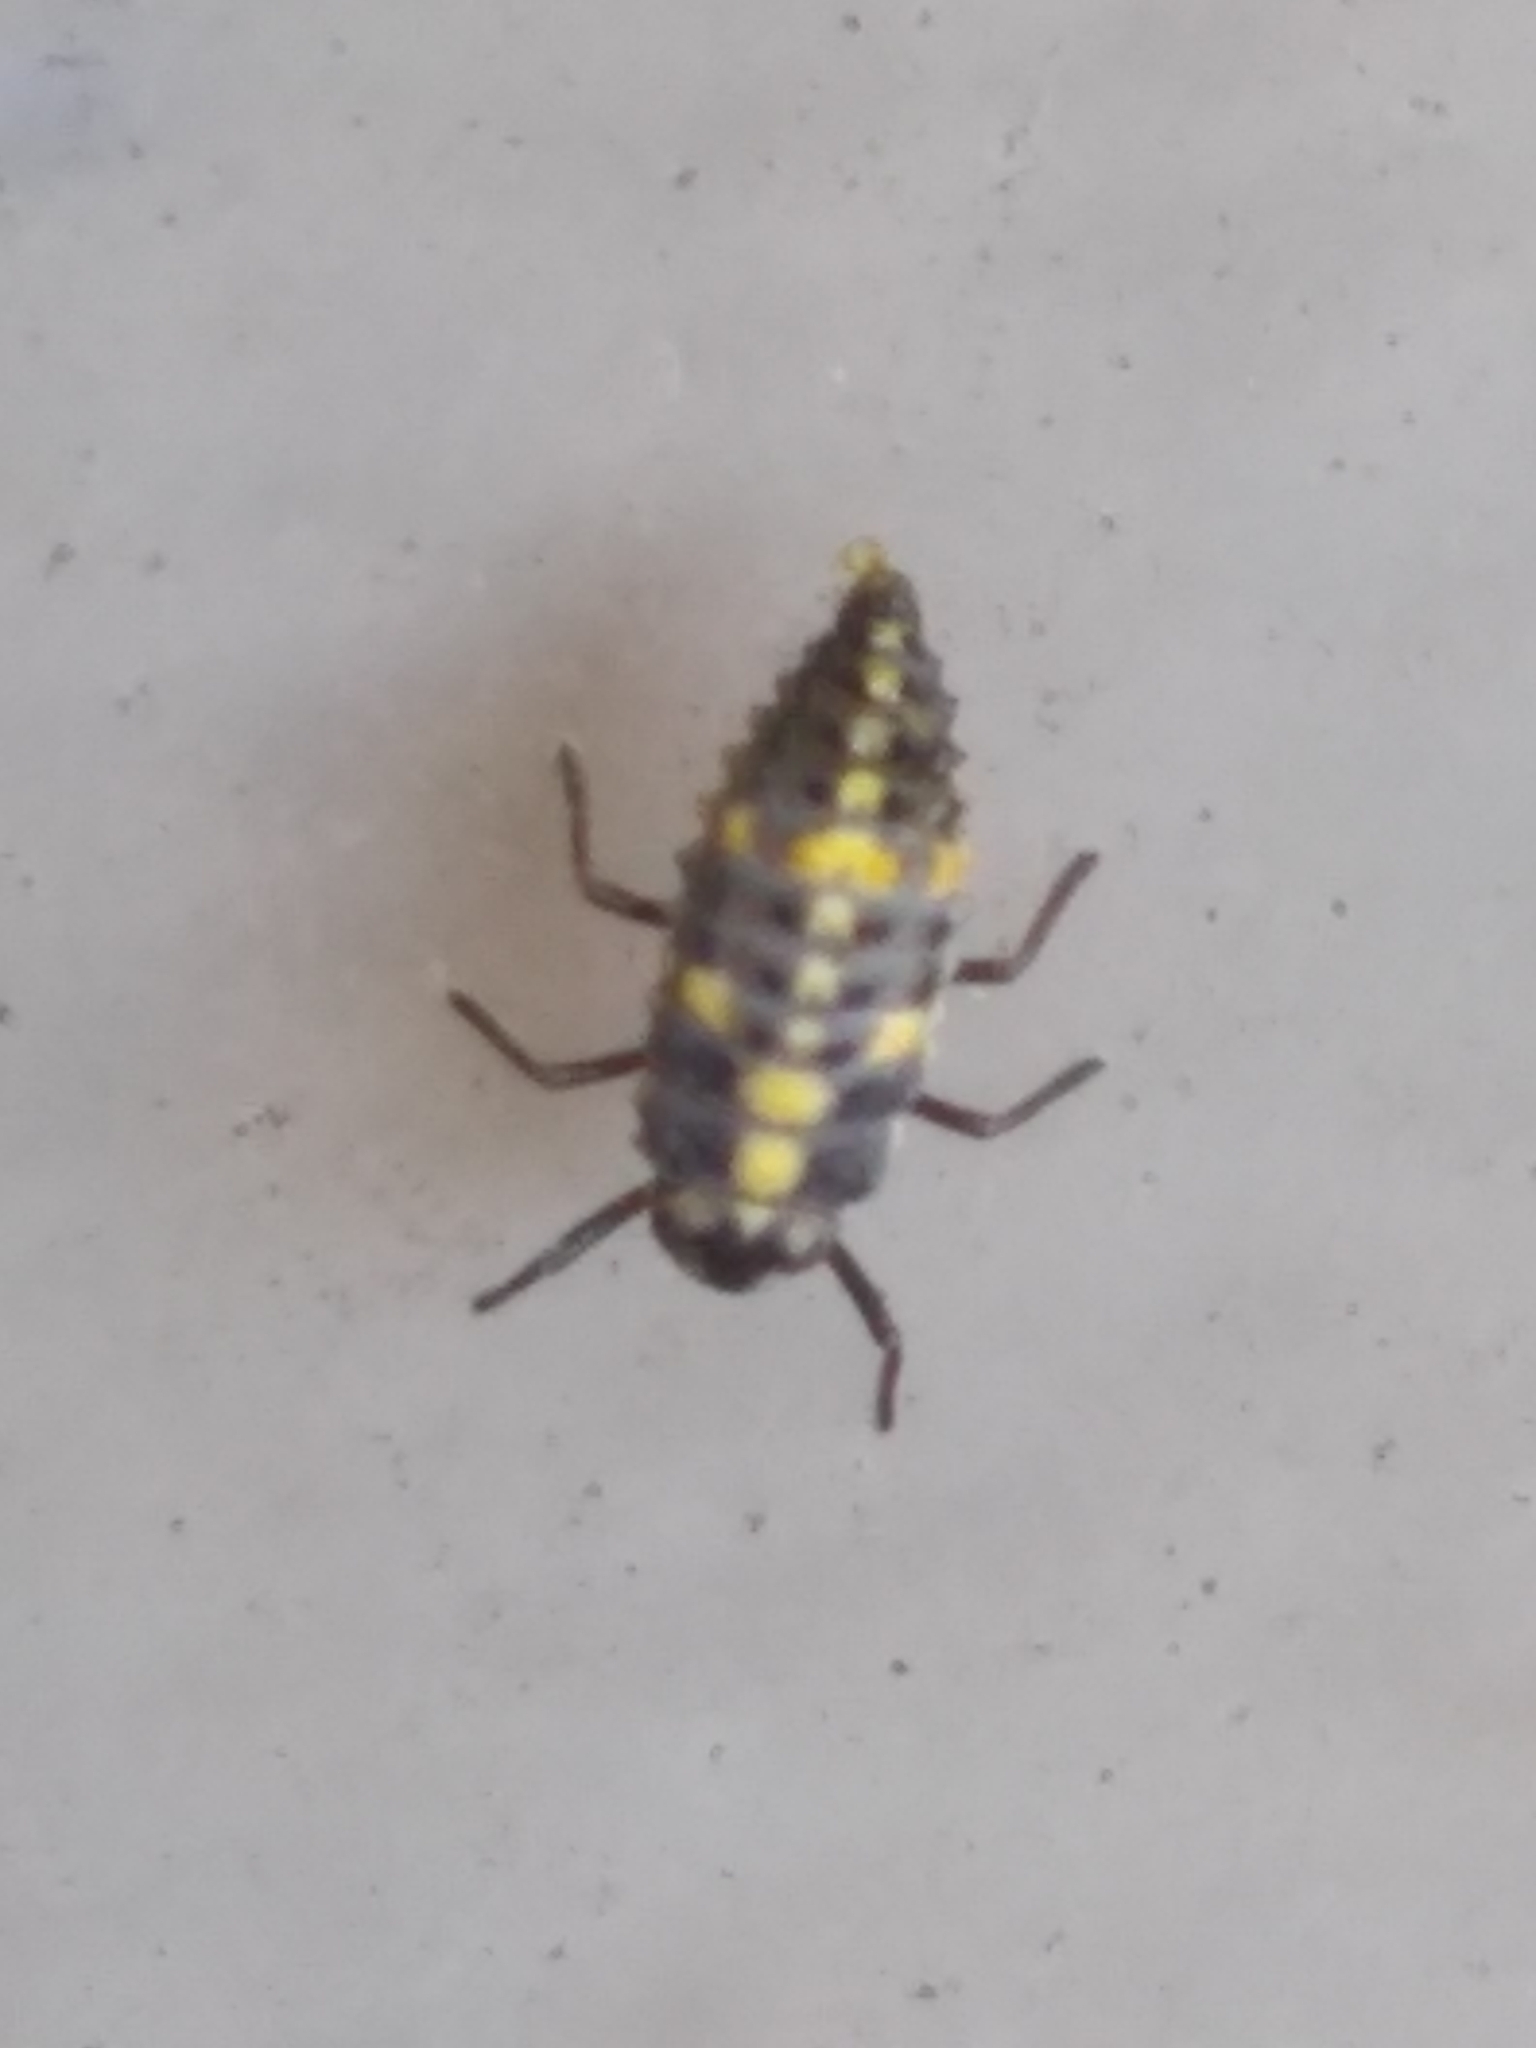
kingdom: Animalia
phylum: Arthropoda
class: Insecta
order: Coleoptera
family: Coccinellidae
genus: Olla
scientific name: Olla v-nigrum
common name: Ashy gray lady beetle
